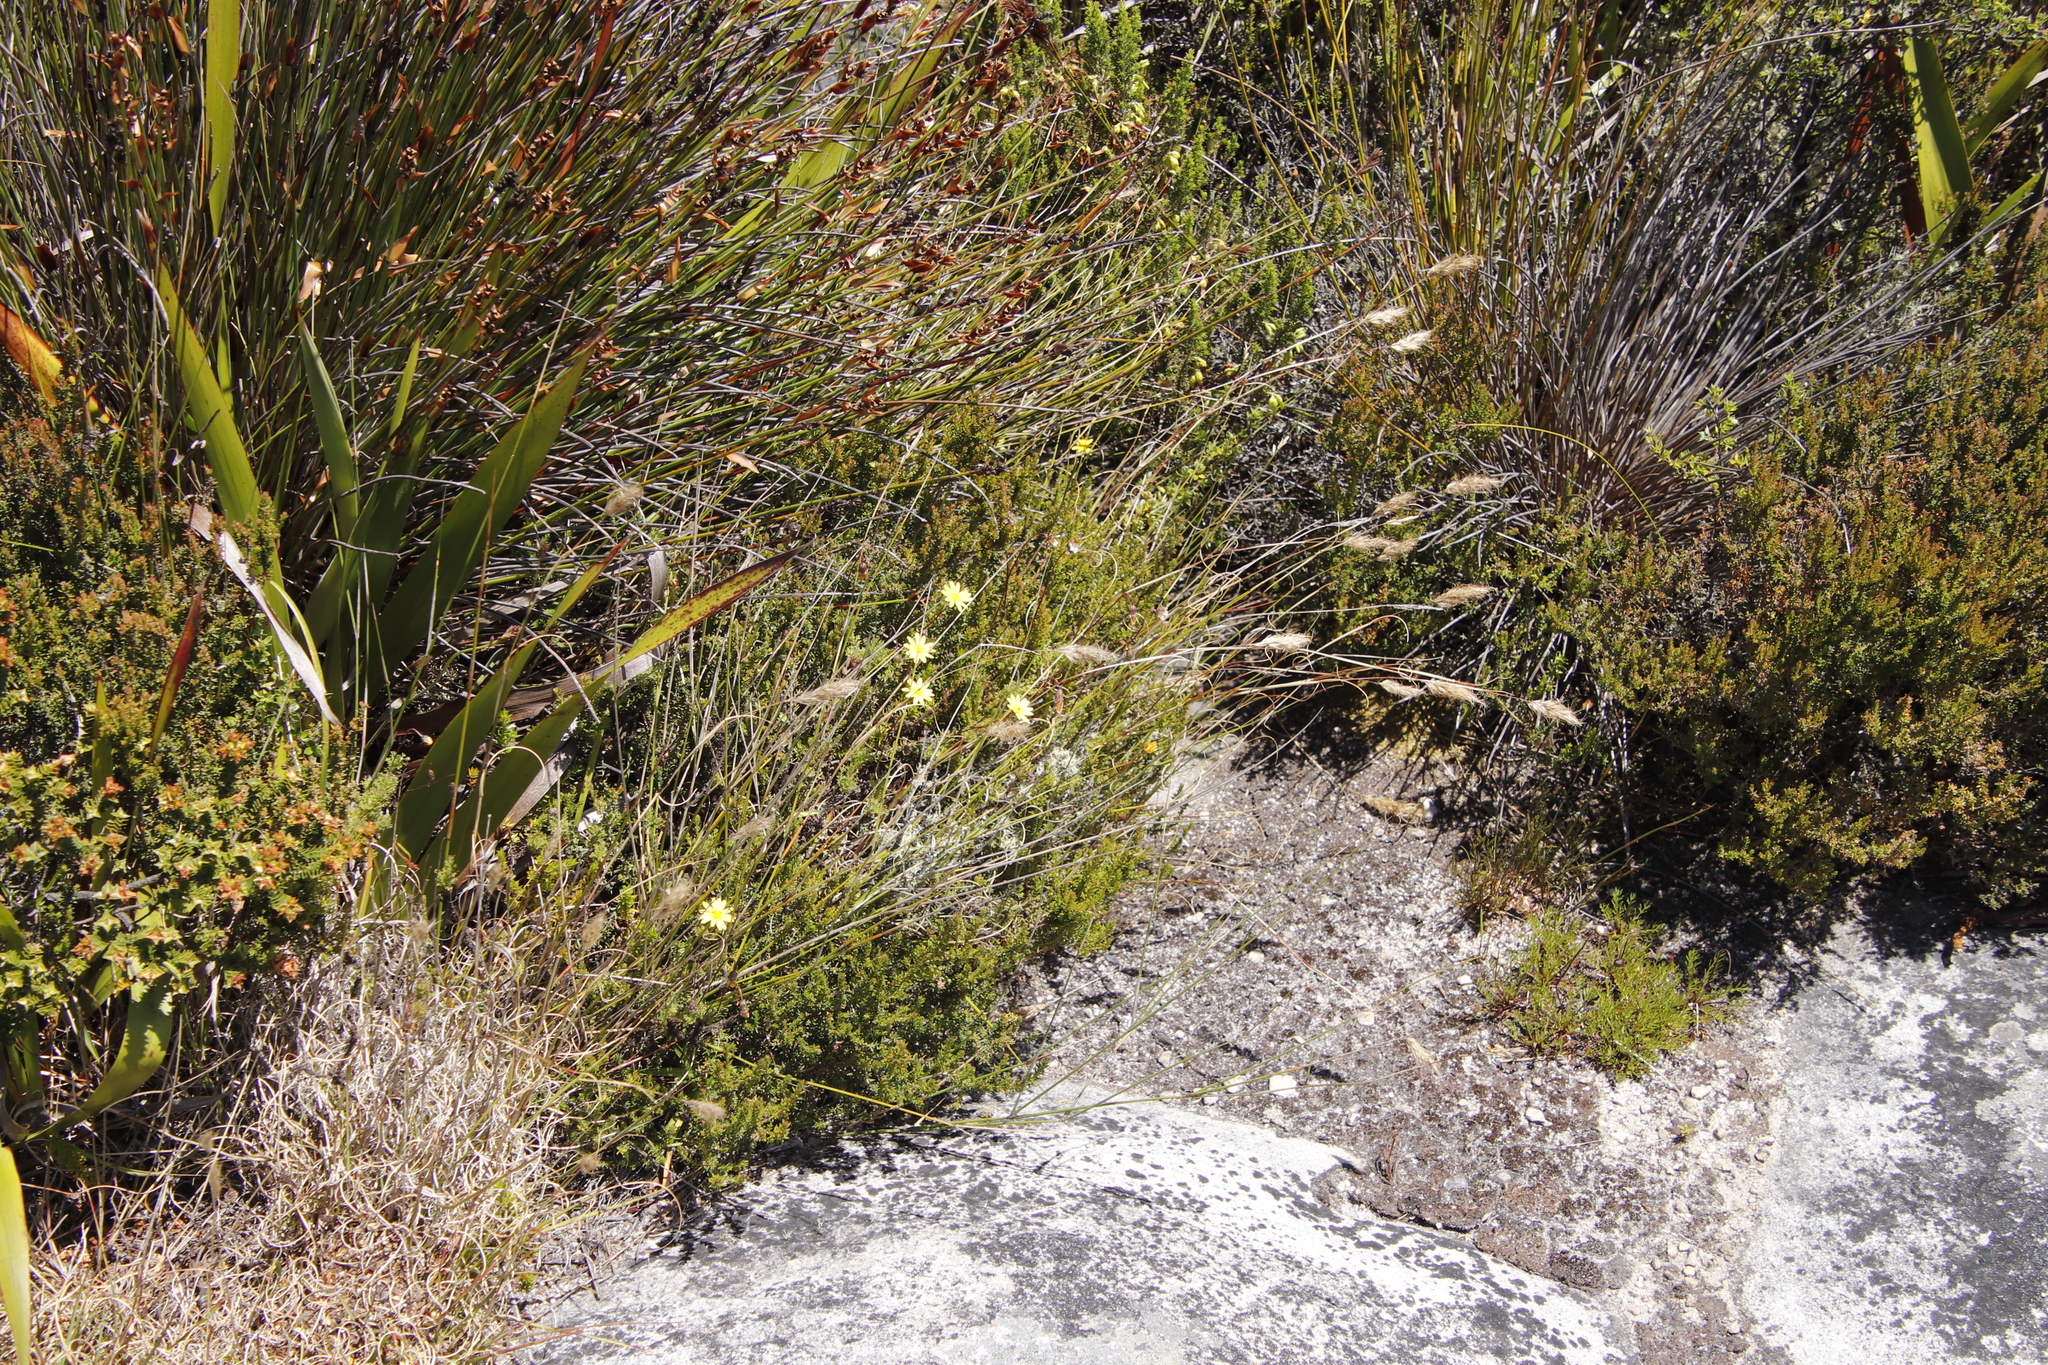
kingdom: Plantae
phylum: Tracheophyta
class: Magnoliopsida
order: Asterales
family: Asteraceae
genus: Ursinia
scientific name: Ursinia nudicaulis
